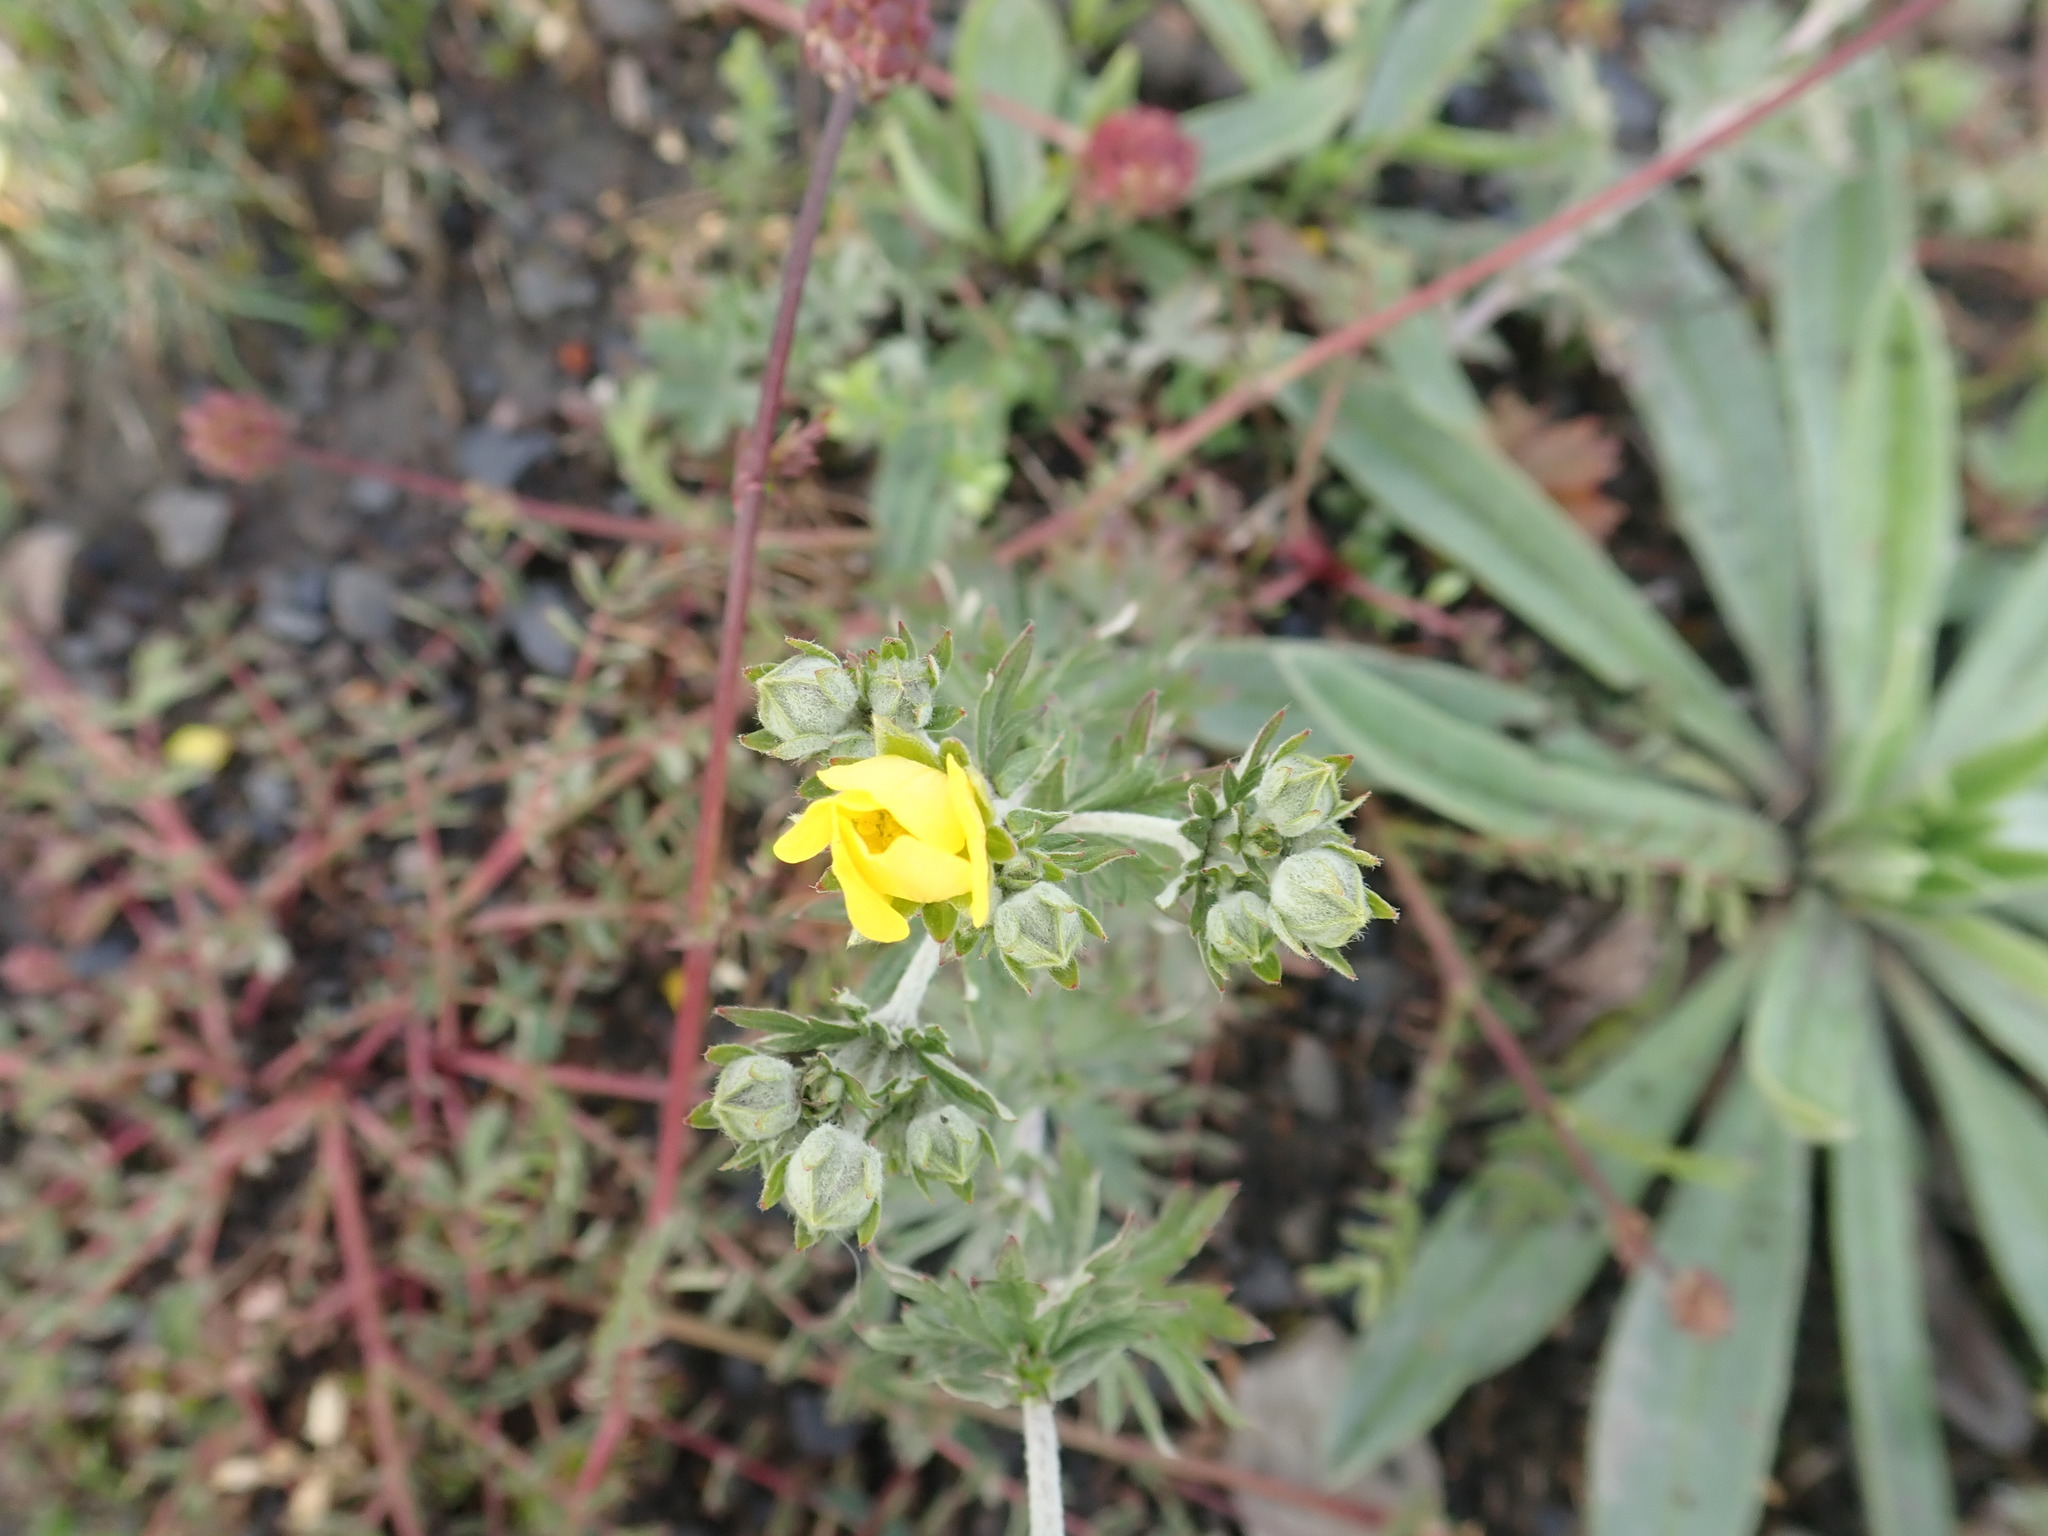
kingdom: Plantae
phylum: Tracheophyta
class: Magnoliopsida
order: Rosales
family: Rosaceae
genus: Potentilla
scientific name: Potentilla argentea
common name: Hoary cinquefoil
